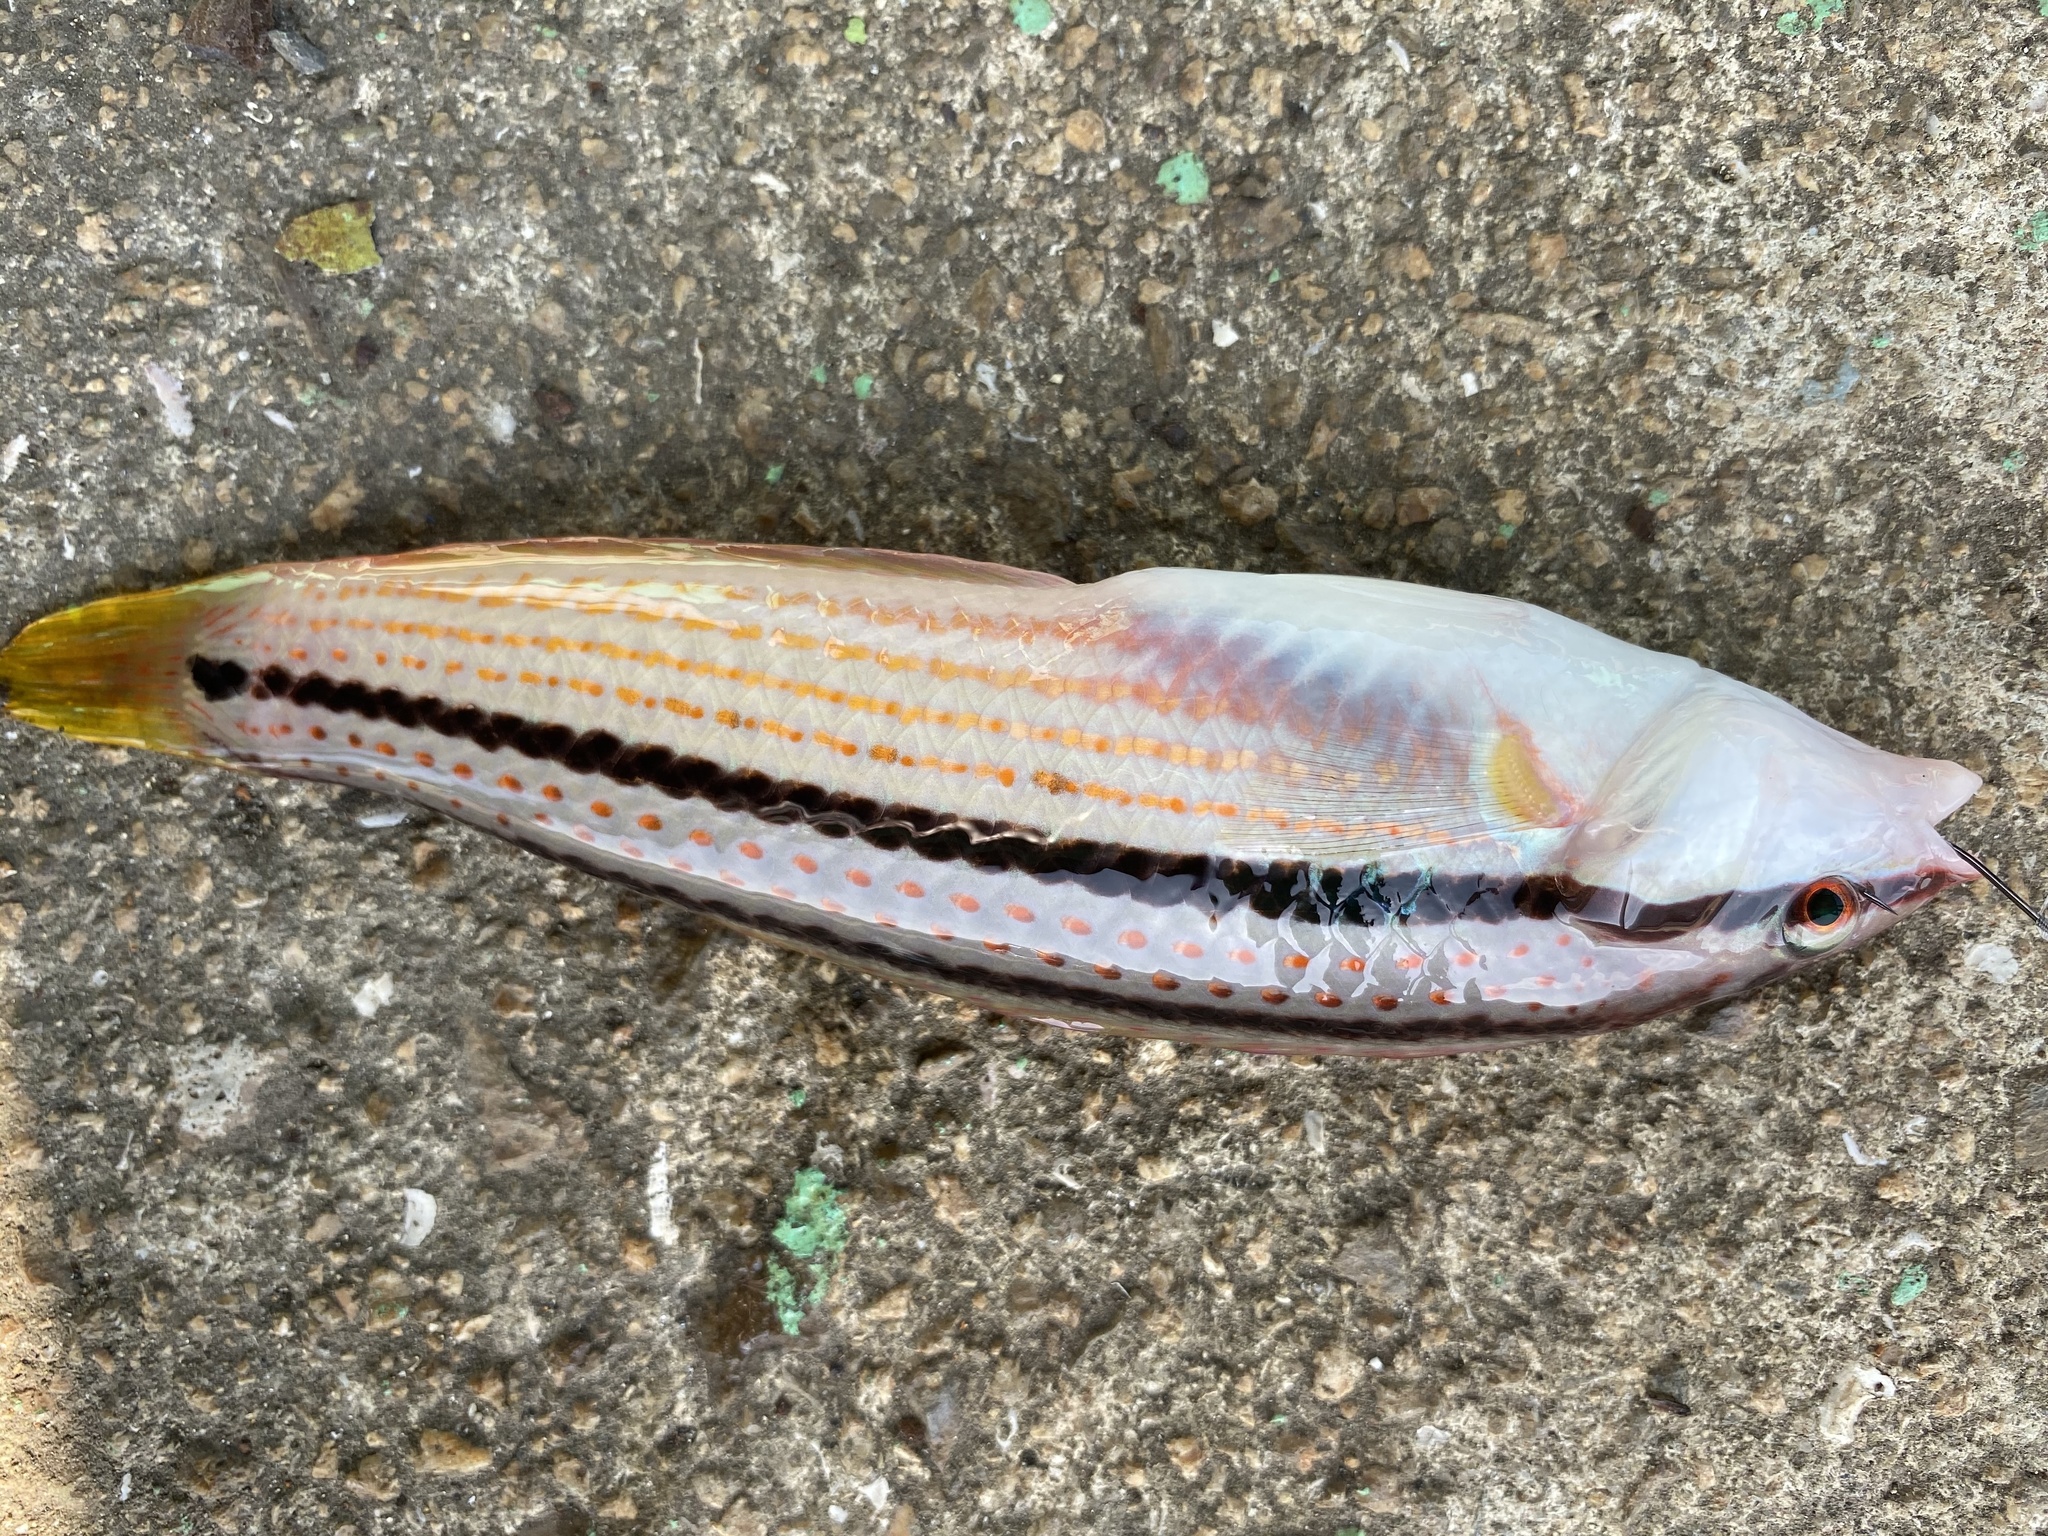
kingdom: Animalia
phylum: Chordata
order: Perciformes
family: Labridae
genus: Parajulis
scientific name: Parajulis poecilepterus
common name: Multicolorfin rainbowfish
